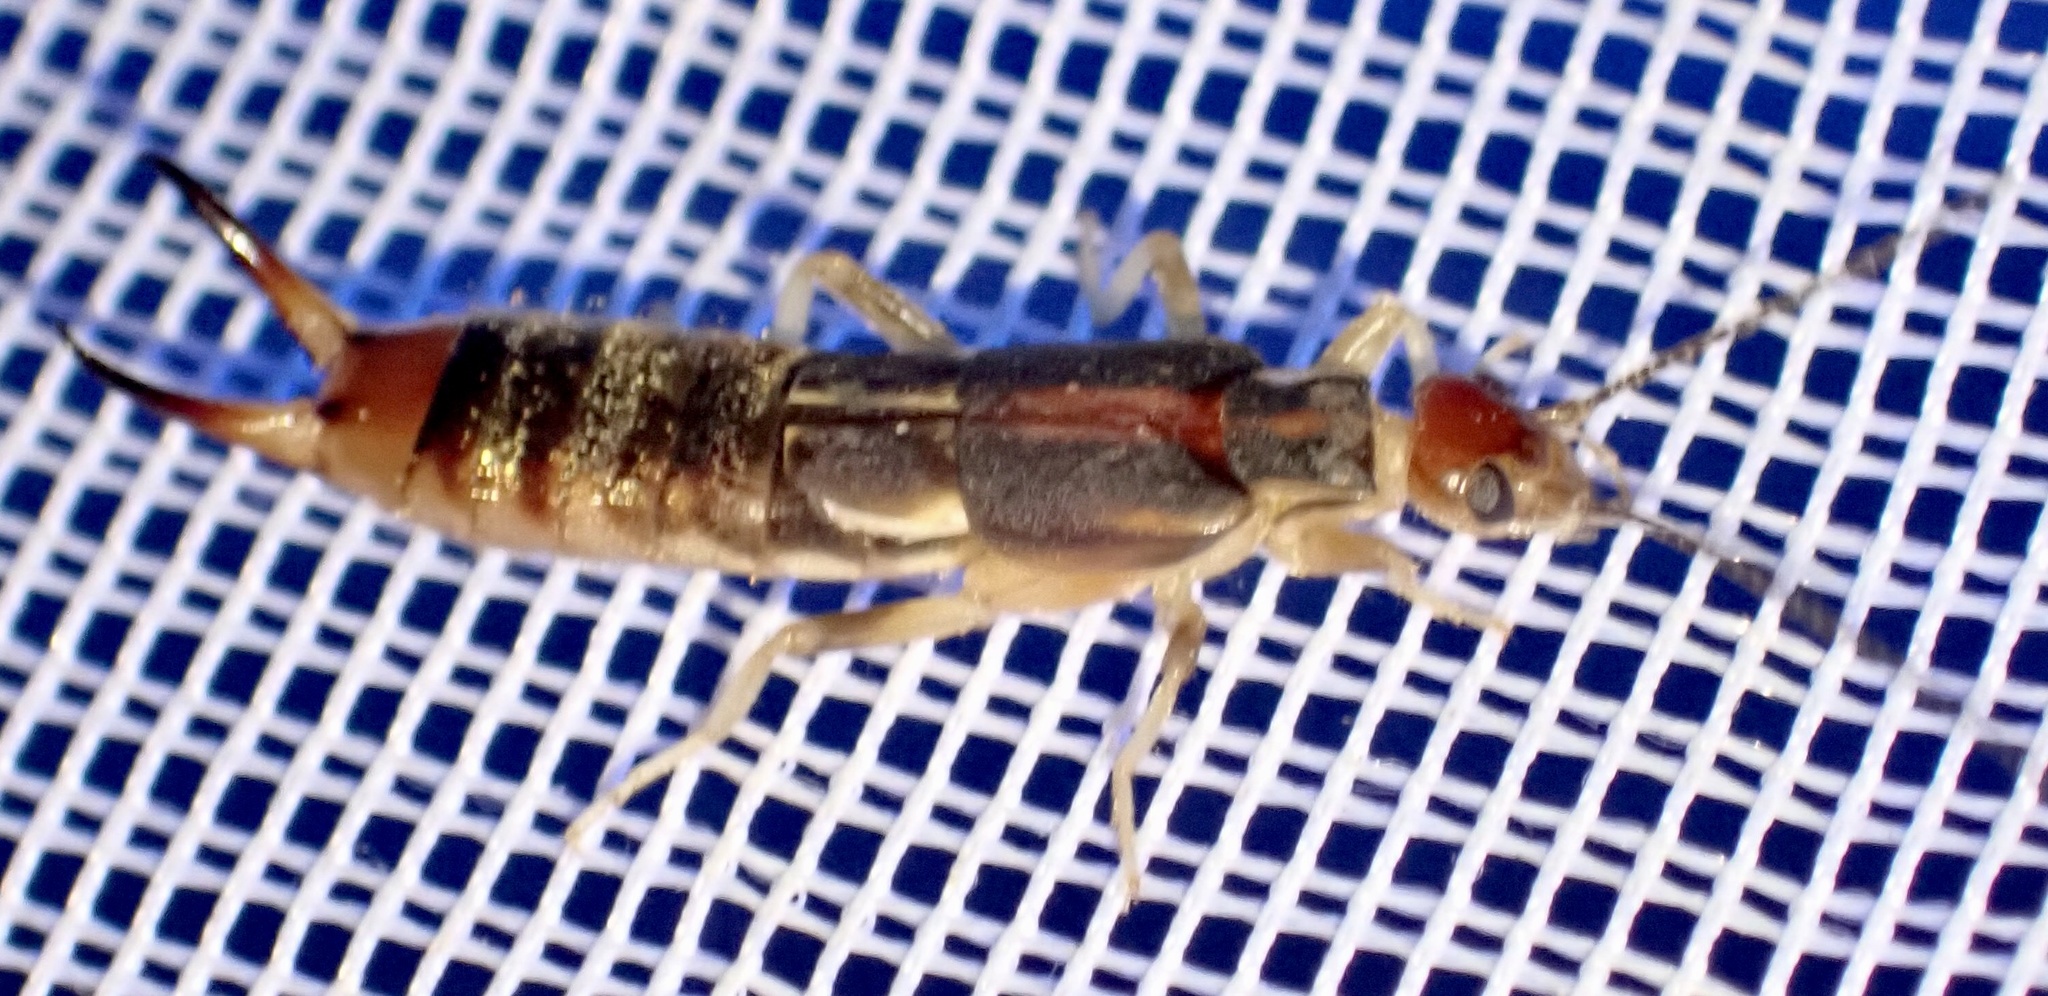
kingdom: Animalia
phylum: Arthropoda
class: Insecta
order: Dermaptera
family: Labiduridae
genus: Labidura
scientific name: Labidura riparia
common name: Striped earwig
